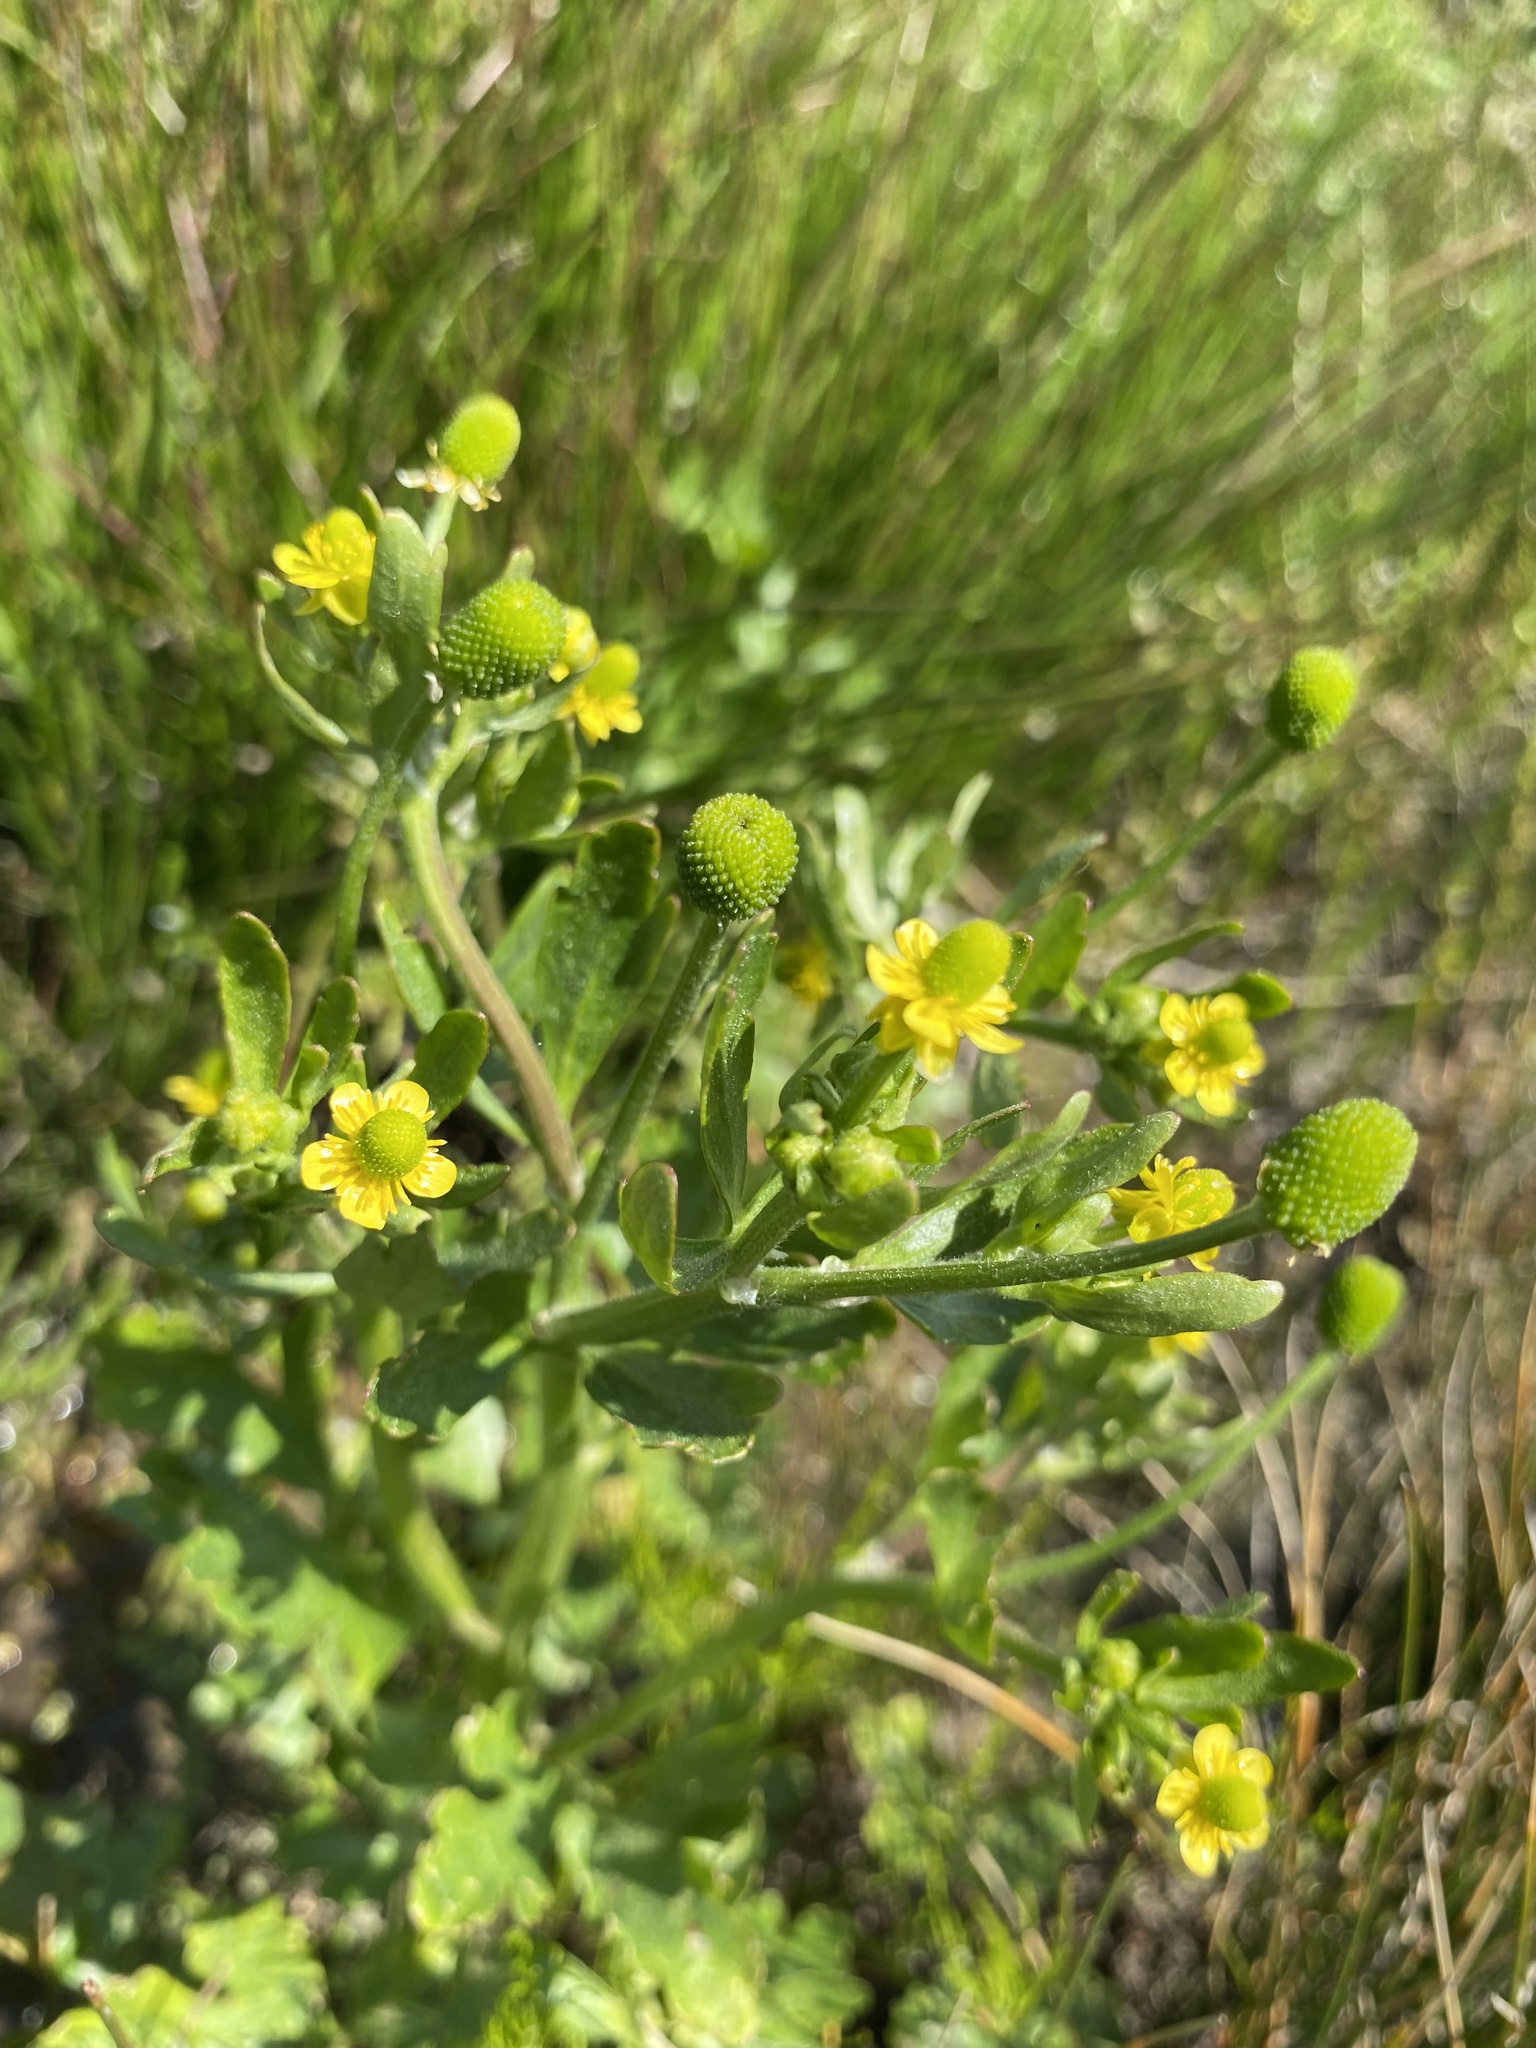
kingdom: Plantae
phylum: Tracheophyta
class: Magnoliopsida
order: Ranunculales
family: Ranunculaceae
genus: Ranunculus
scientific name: Ranunculus sceleratus
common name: Celery-leaved buttercup
